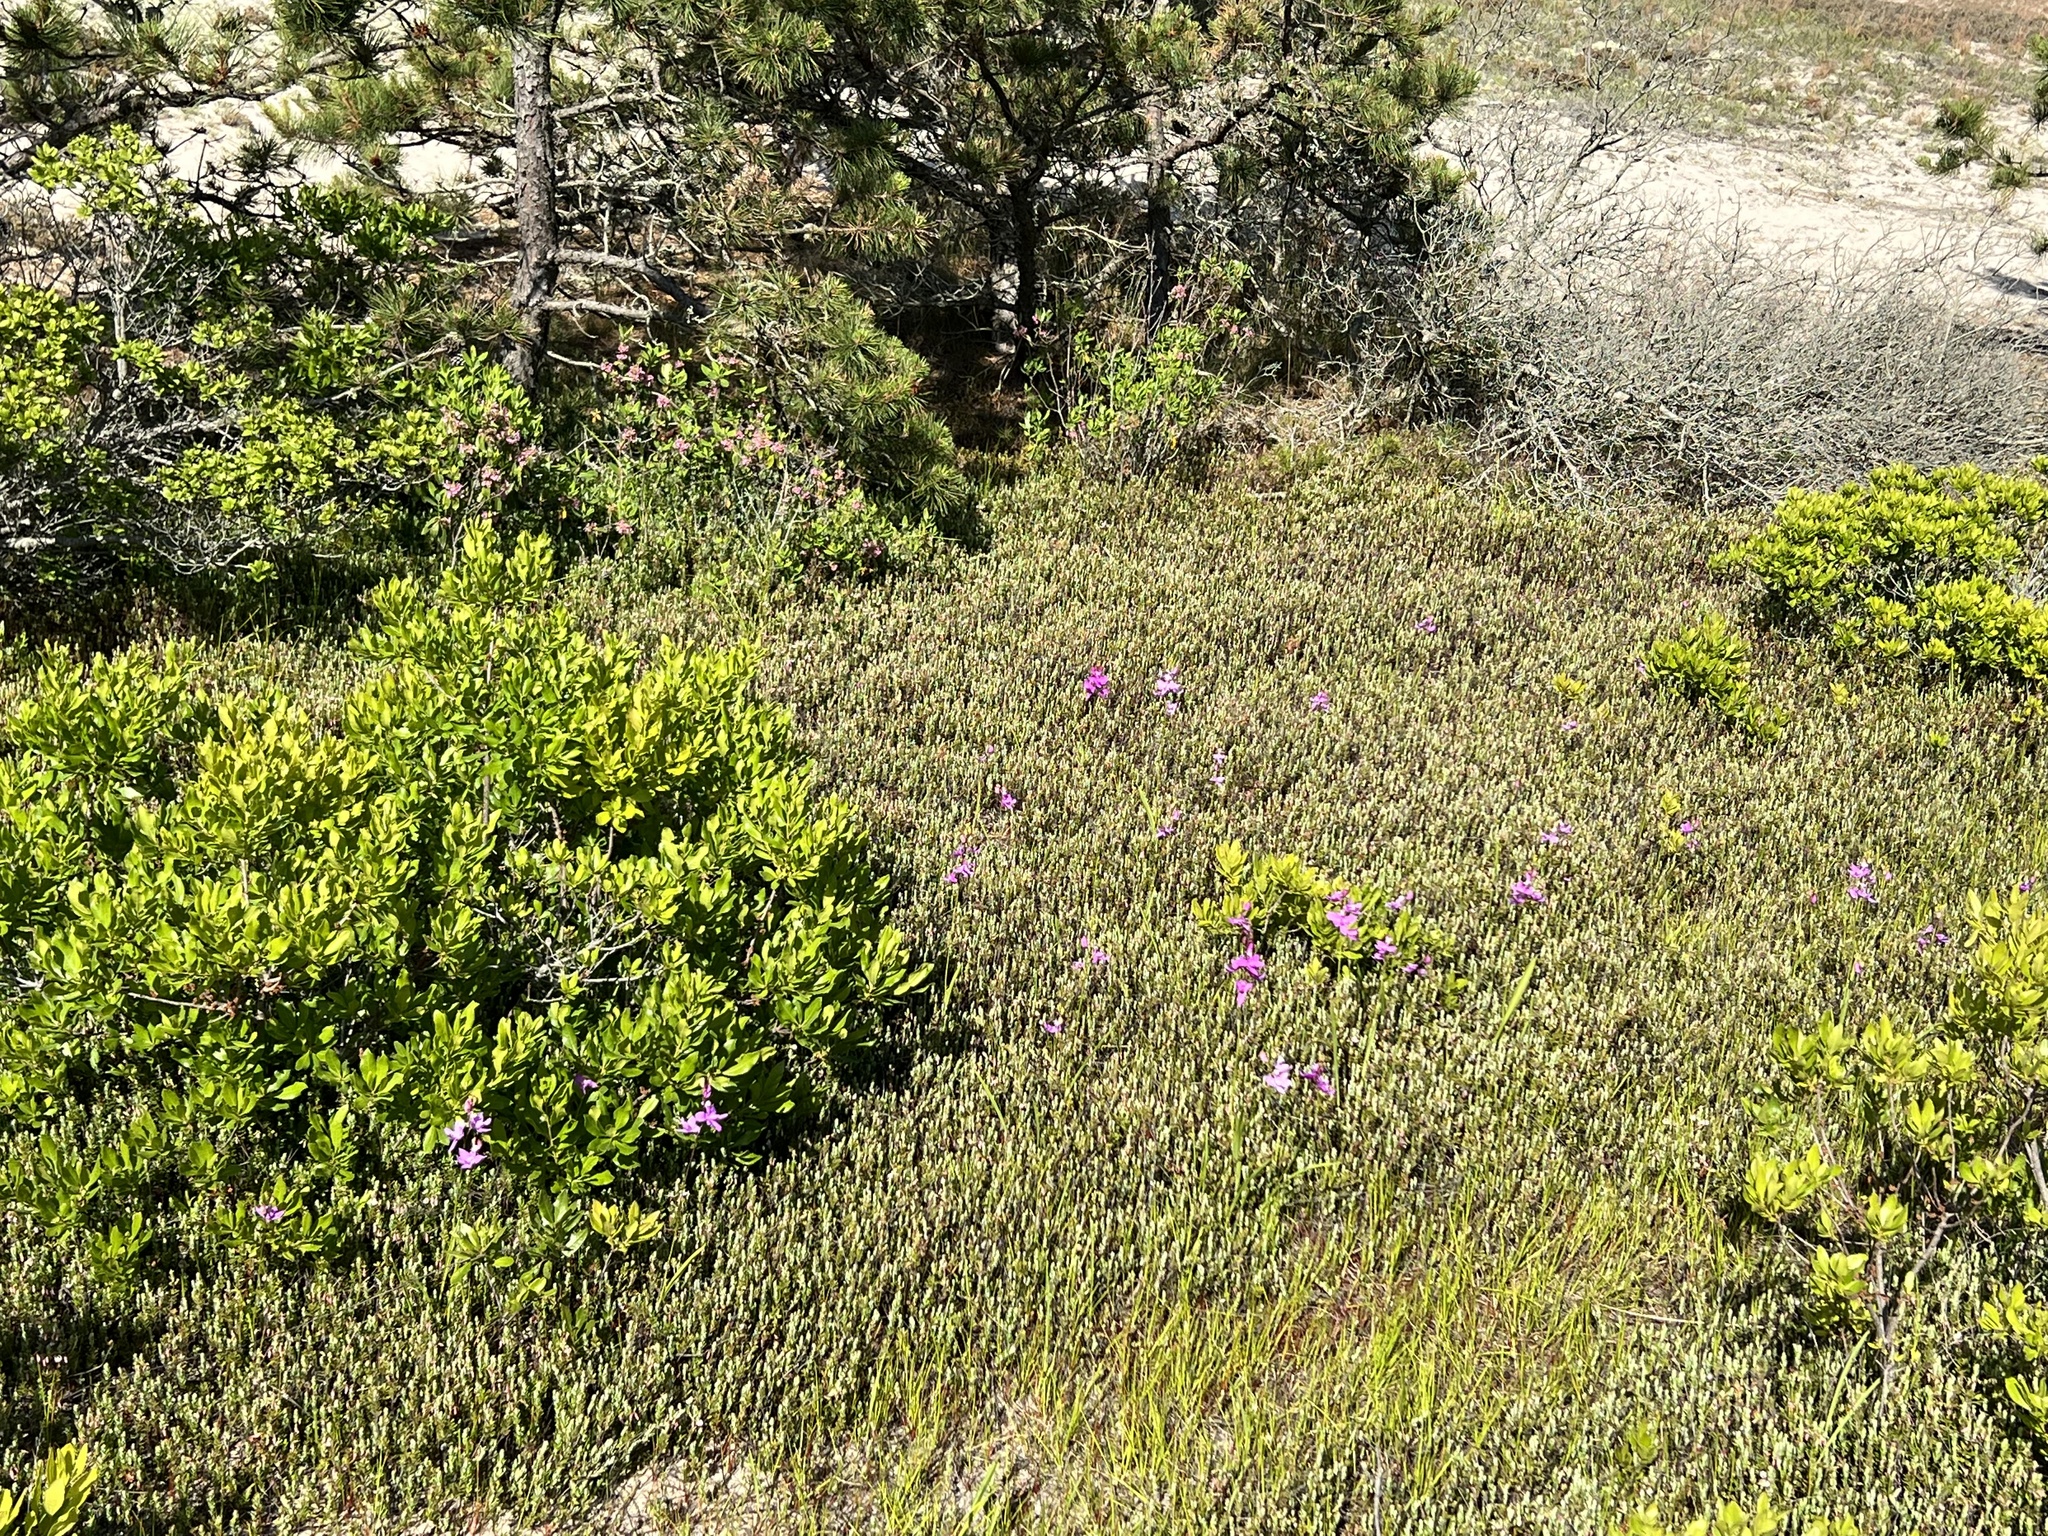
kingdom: Plantae
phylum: Tracheophyta
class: Liliopsida
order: Asparagales
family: Orchidaceae
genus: Calopogon
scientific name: Calopogon tuberosus
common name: Grass-pink
